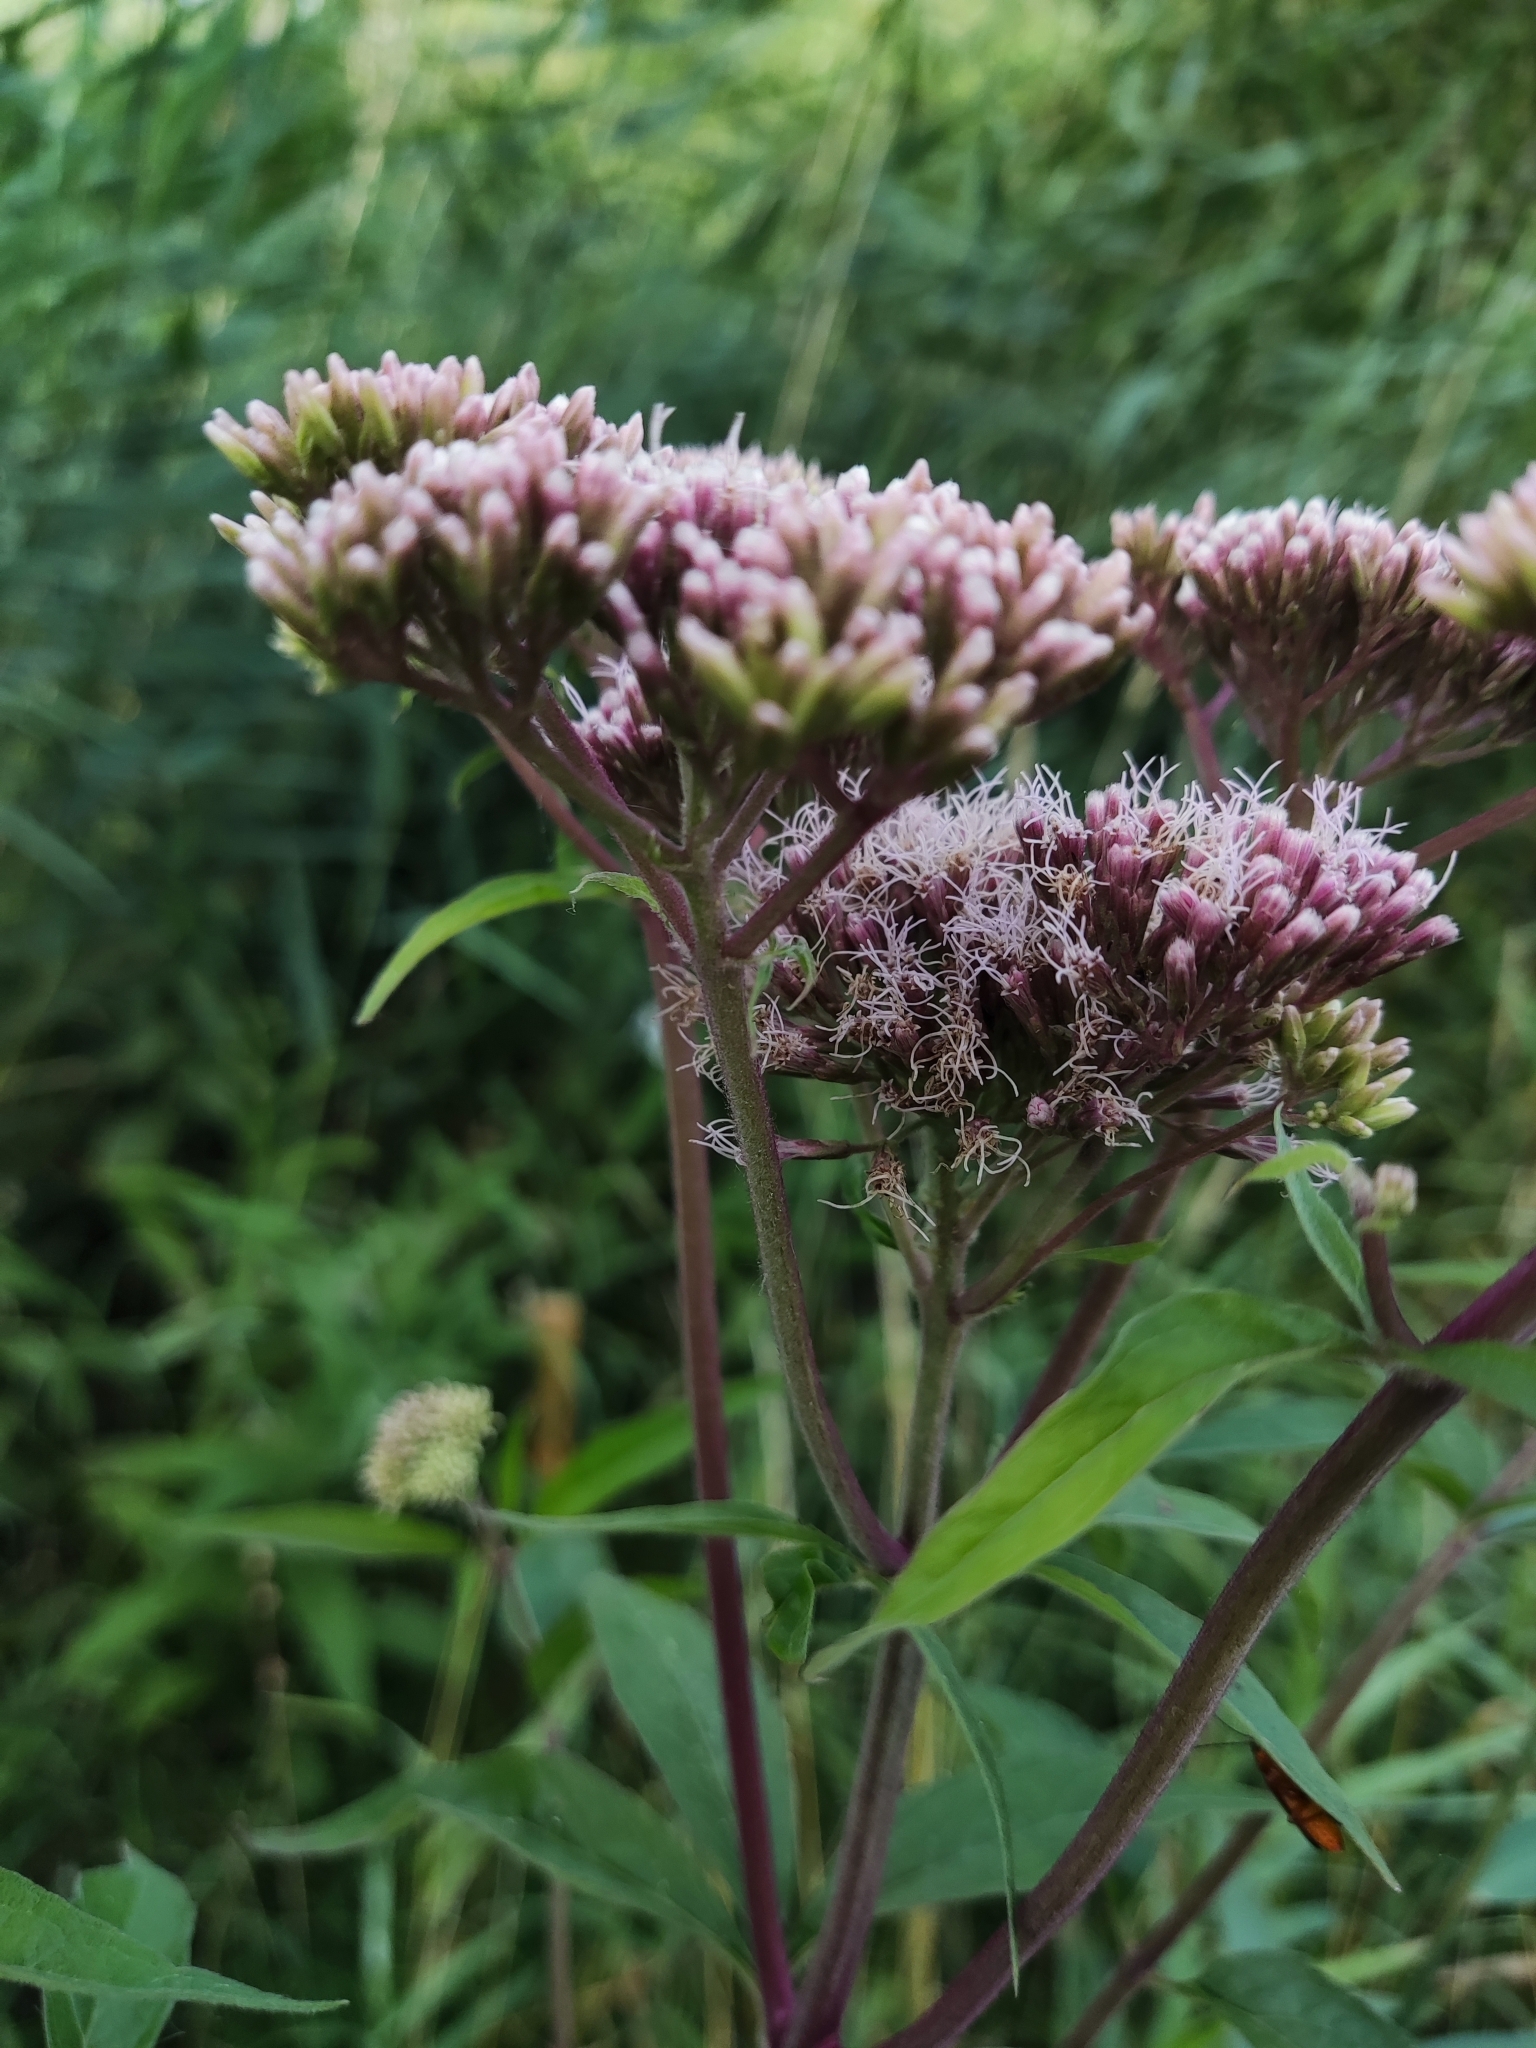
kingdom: Plantae
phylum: Tracheophyta
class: Magnoliopsida
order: Asterales
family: Asteraceae
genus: Eupatorium
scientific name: Eupatorium cannabinum
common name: Hemp-agrimony
